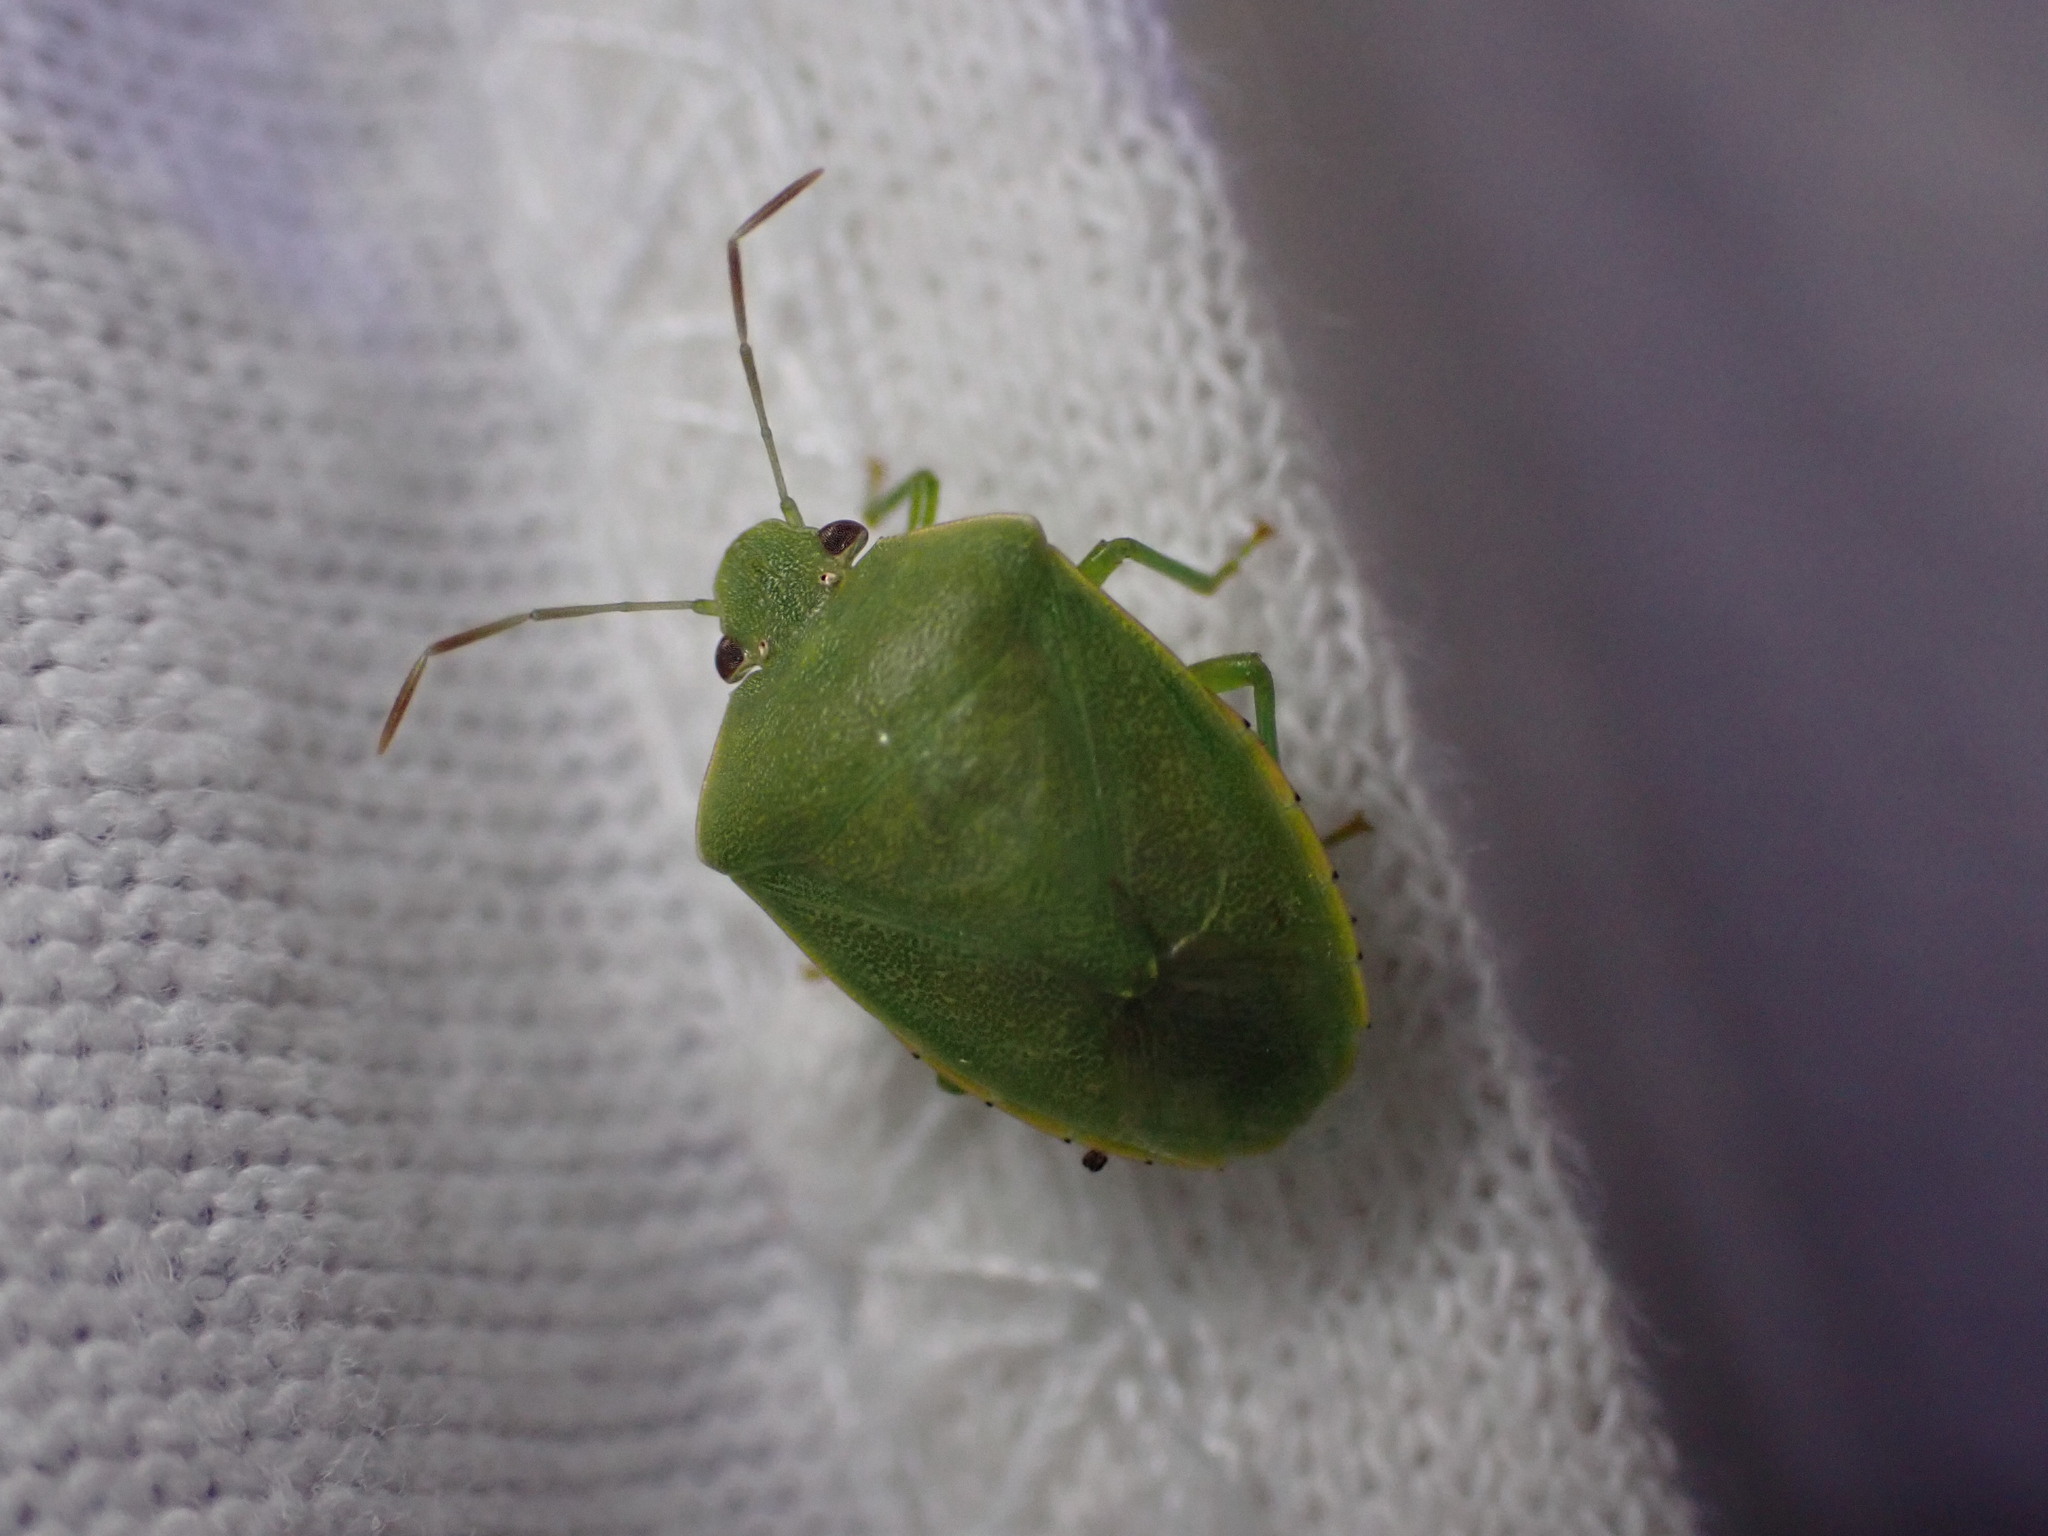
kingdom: Animalia
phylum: Arthropoda
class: Insecta
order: Hemiptera
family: Pentatomidae
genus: Acrosternum
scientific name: Acrosternum heegeri
